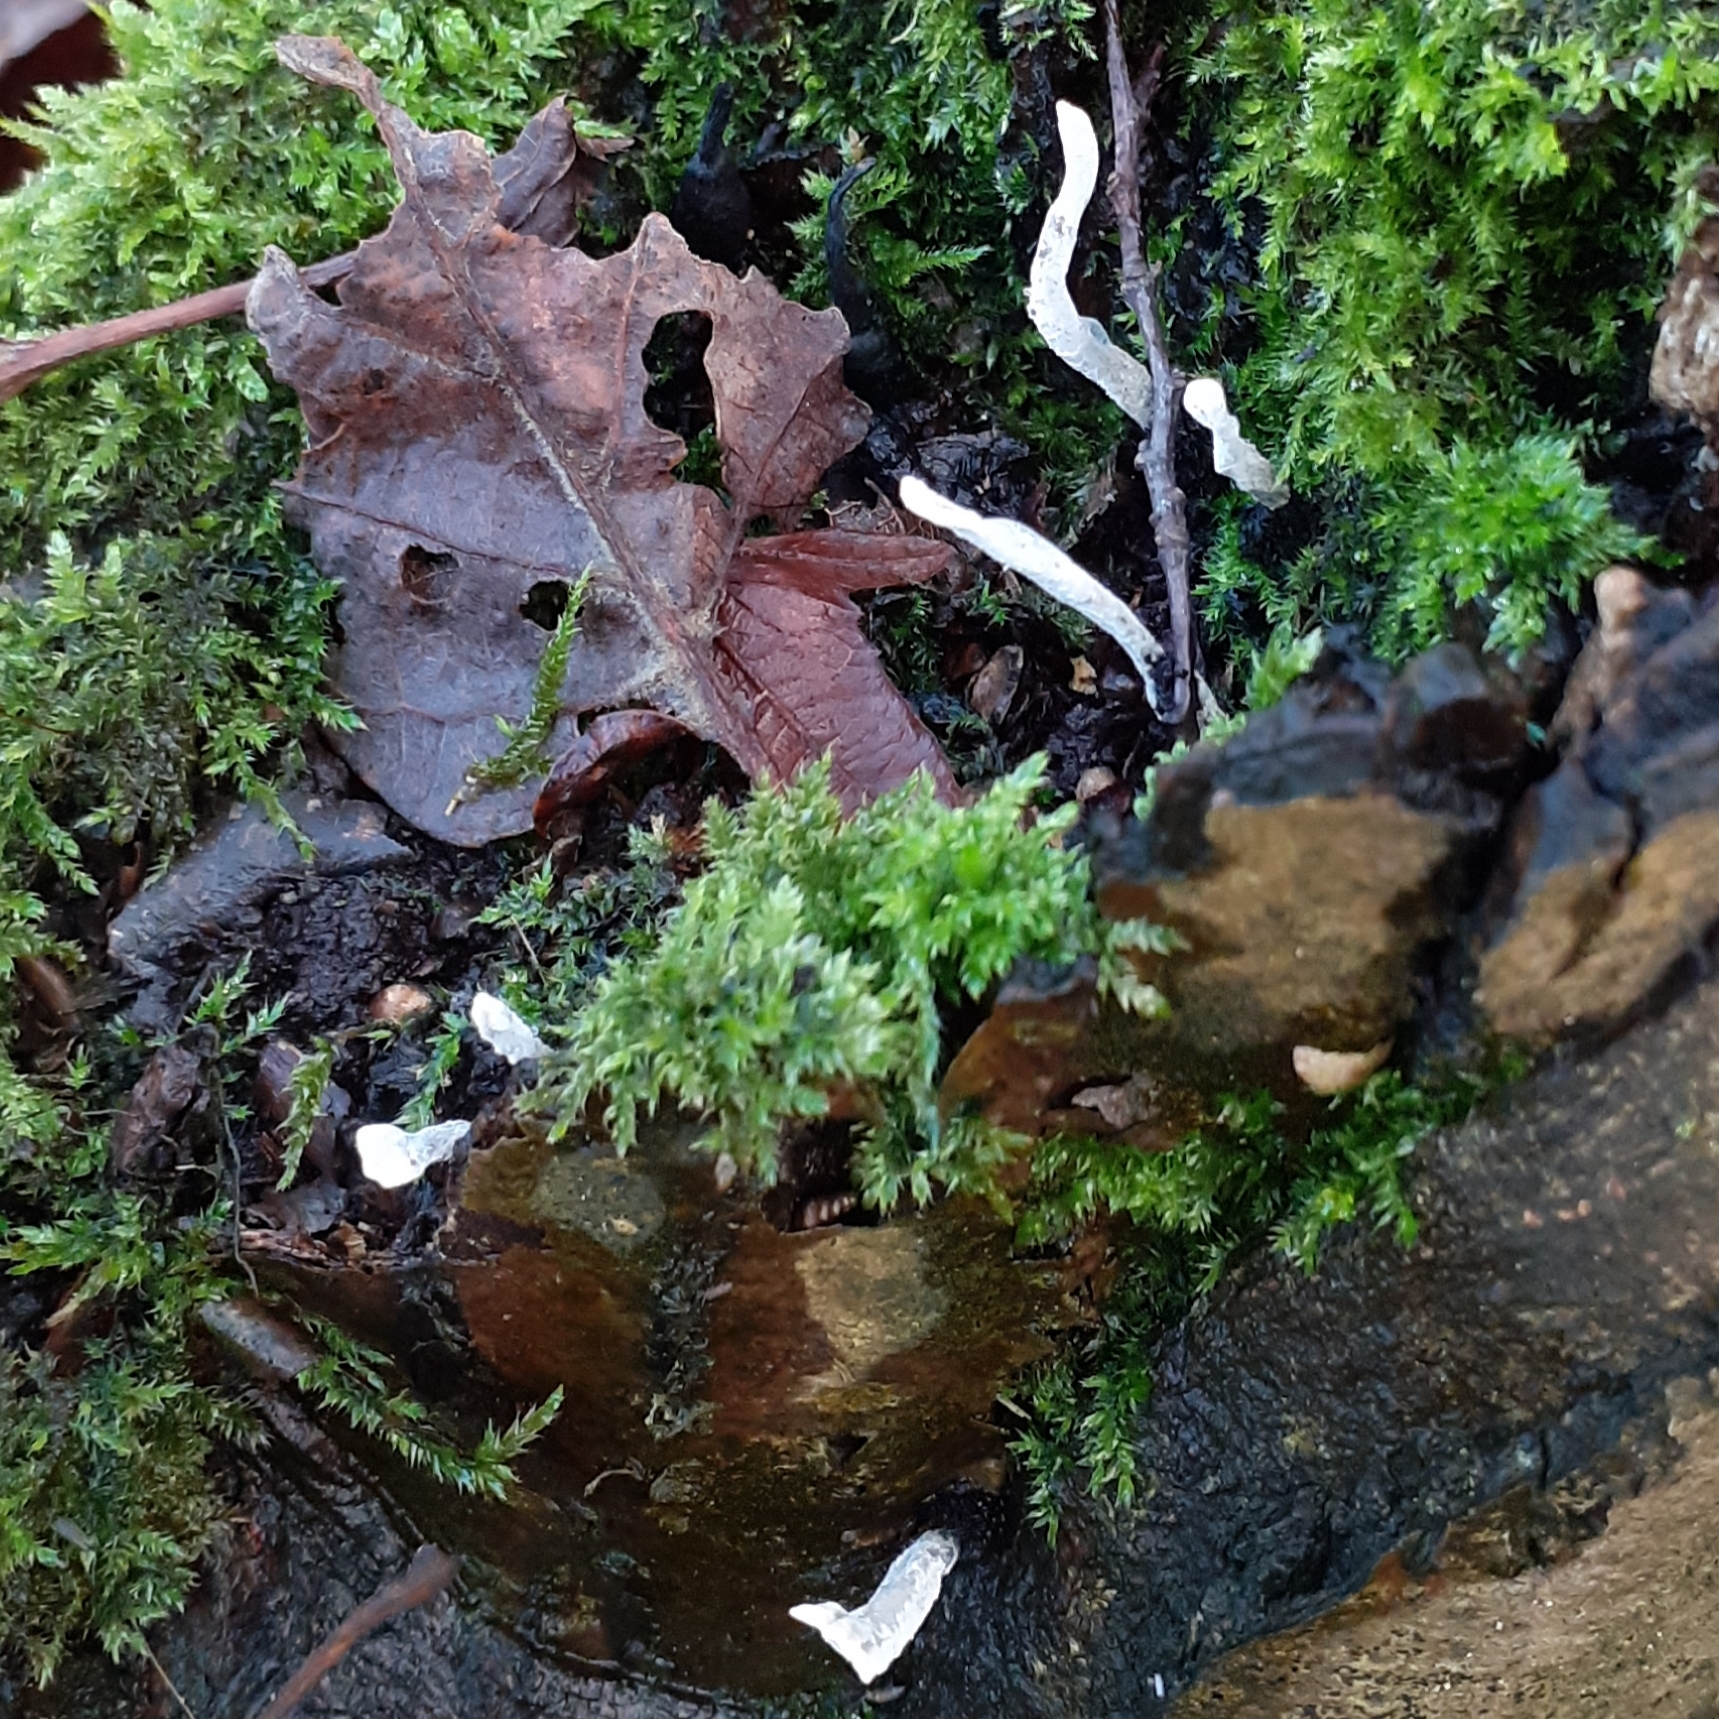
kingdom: Fungi
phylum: Ascomycota
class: Sordariomycetes
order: Xylariales
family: Xylariaceae
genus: Xylaria
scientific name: Xylaria hypoxylon
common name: Candle-snuff fungus
